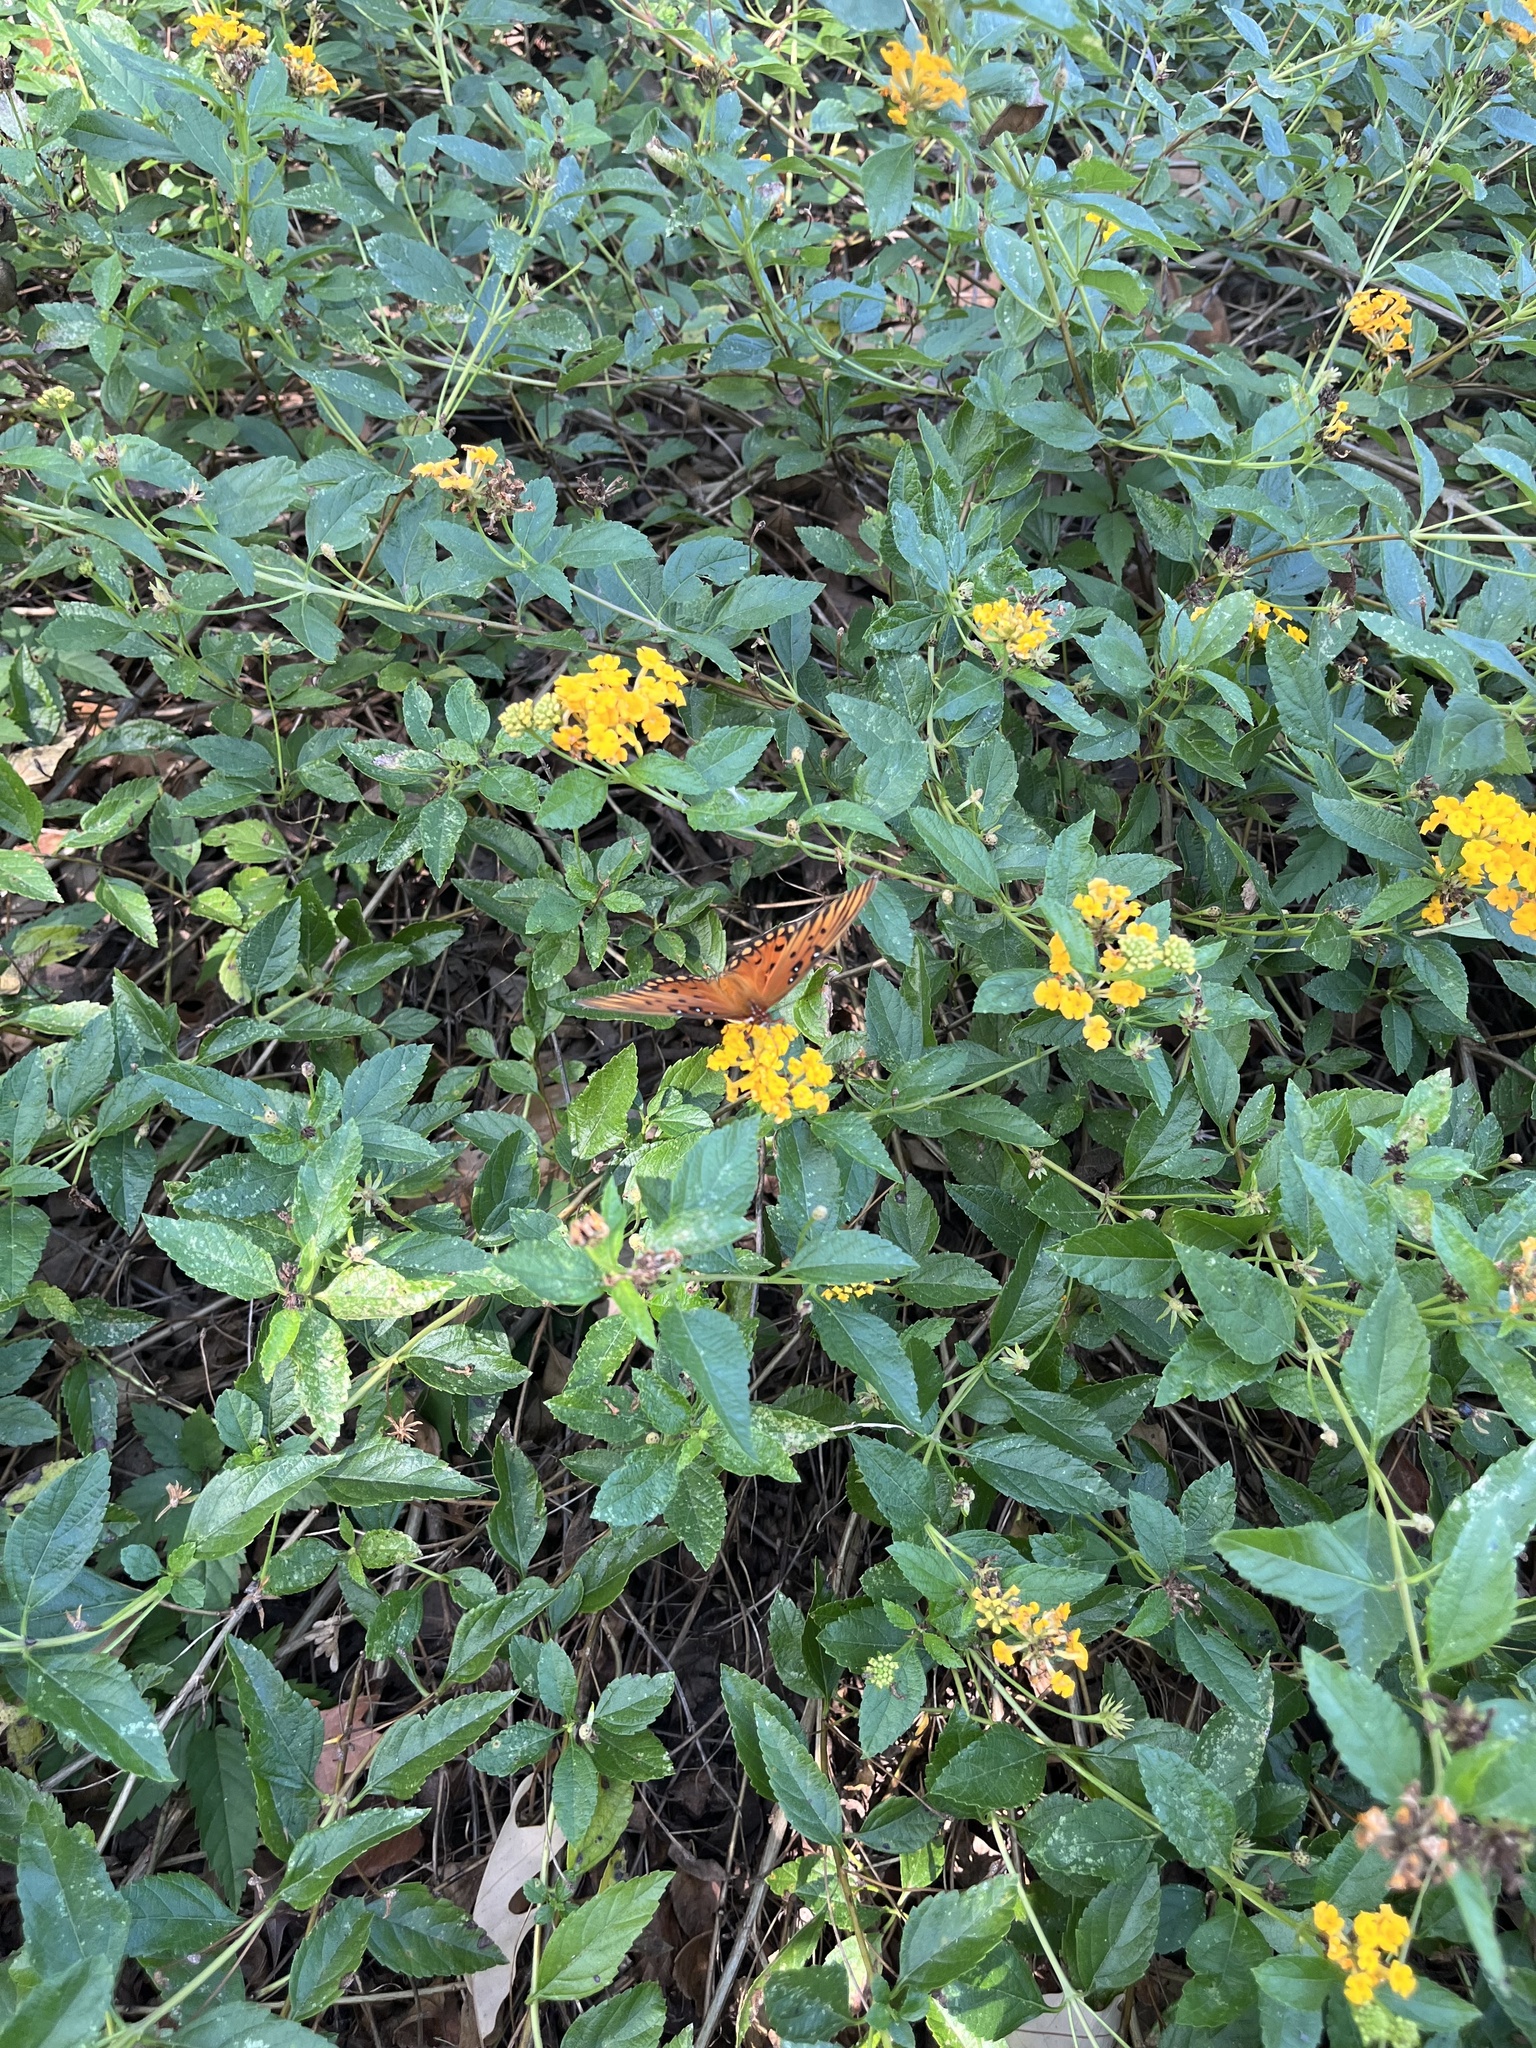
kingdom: Animalia
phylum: Arthropoda
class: Insecta
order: Lepidoptera
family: Nymphalidae
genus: Dione
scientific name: Dione vanillae
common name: Gulf fritillary
